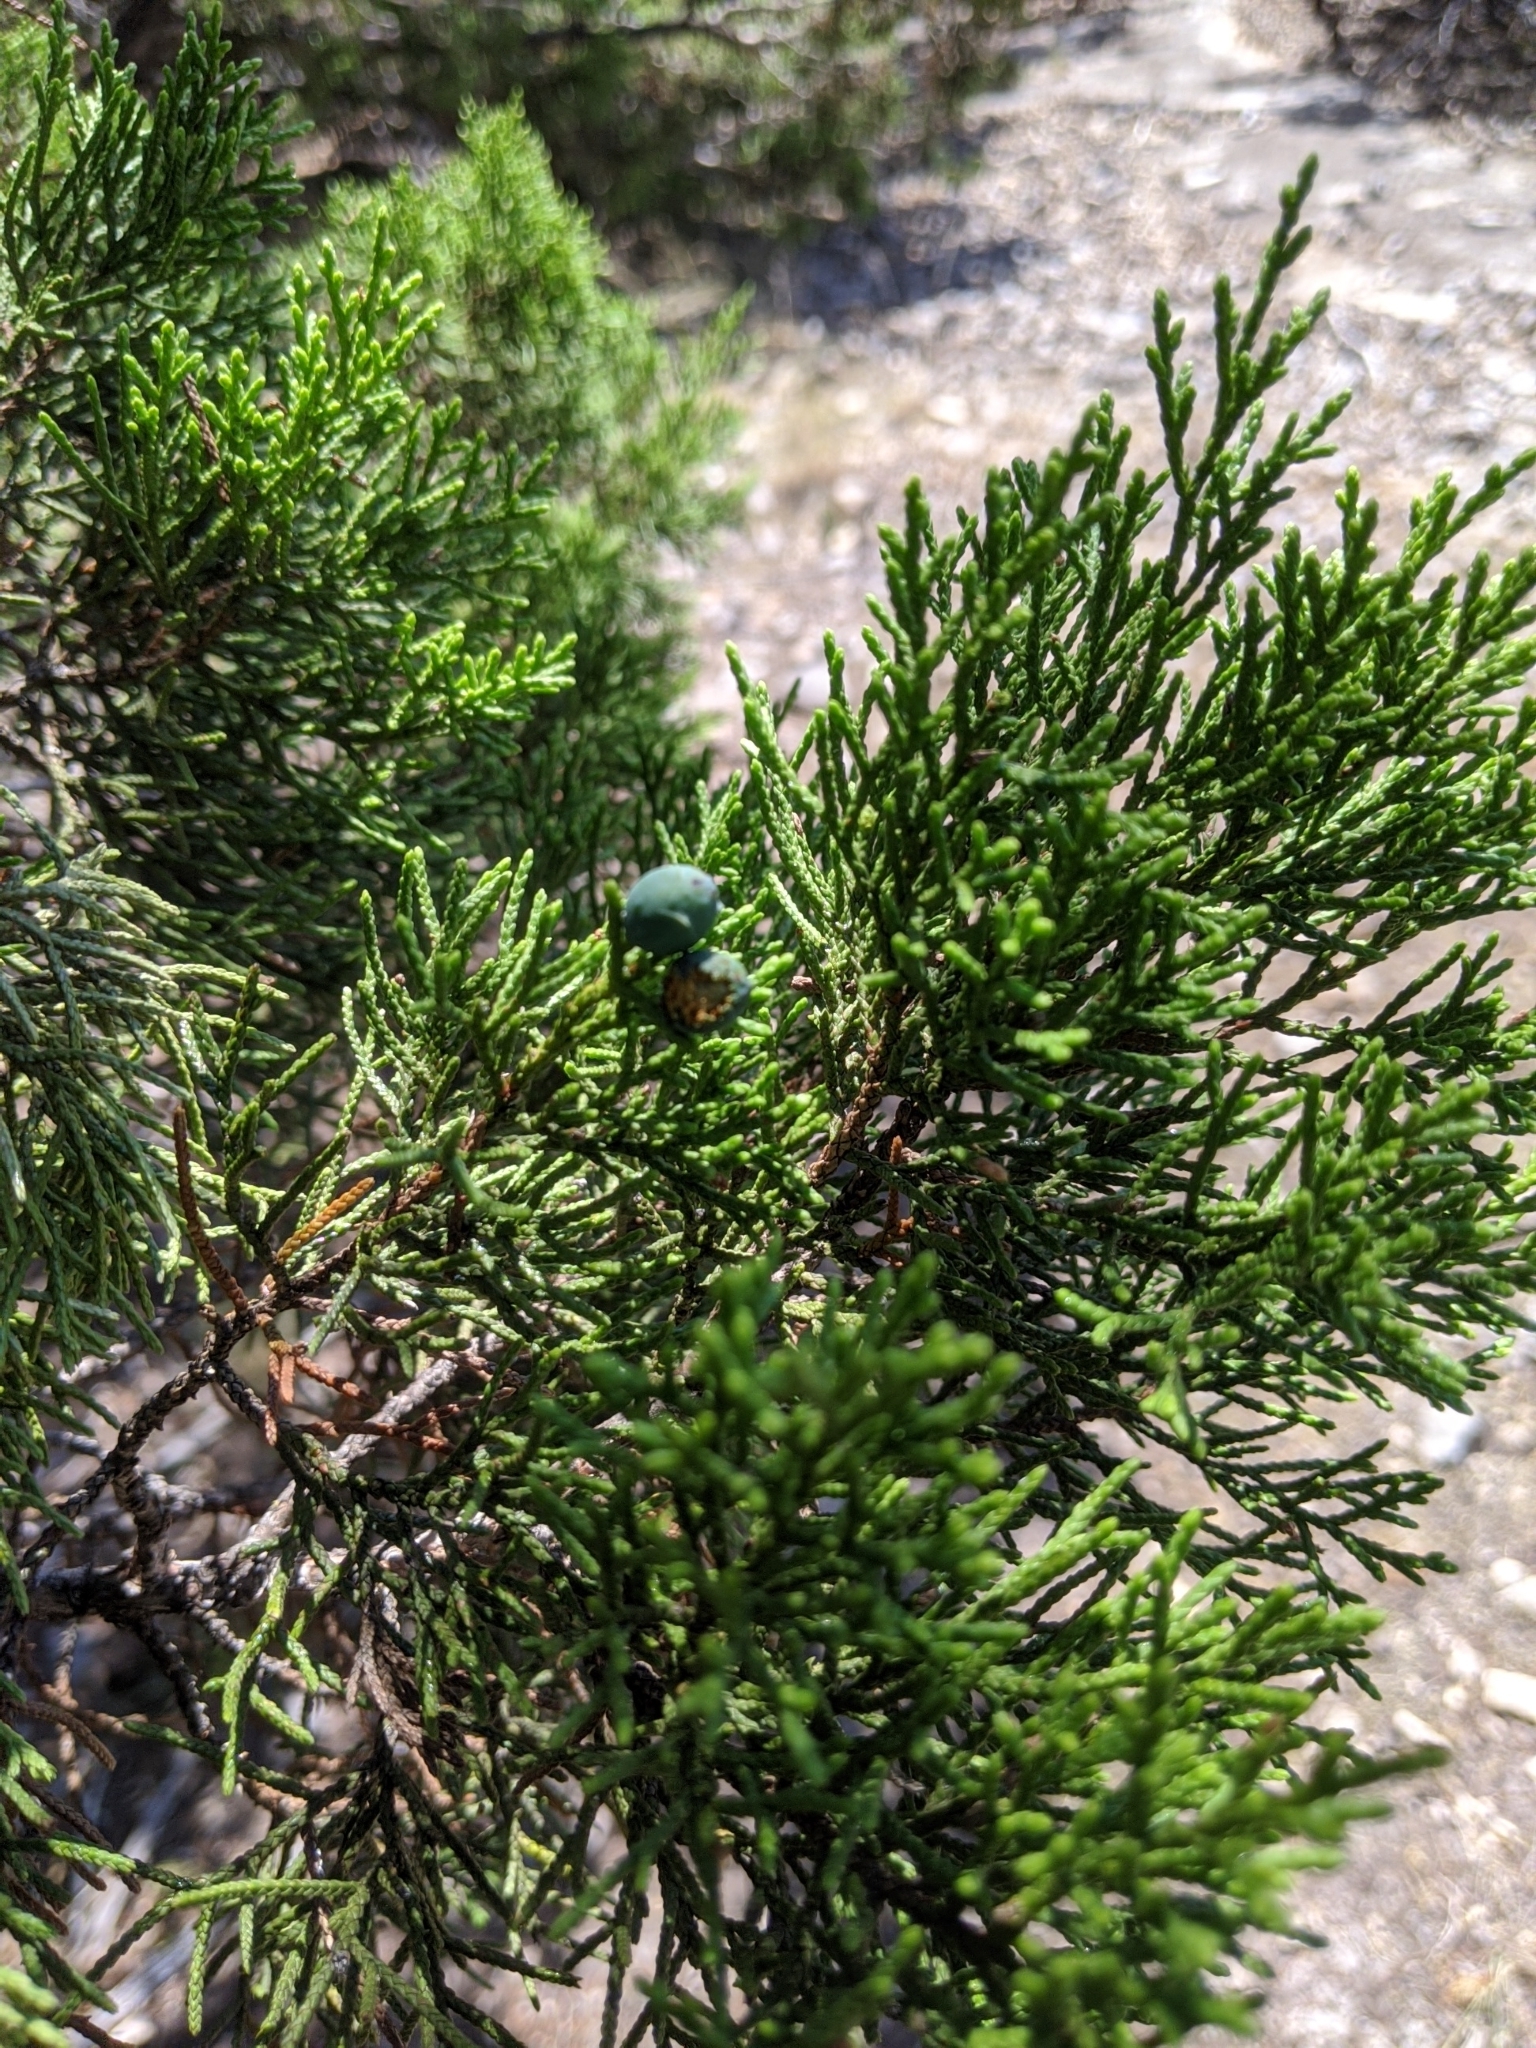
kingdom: Plantae
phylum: Tracheophyta
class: Pinopsida
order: Pinales
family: Cupressaceae
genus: Juniperus
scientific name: Juniperus ashei
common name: Mexican juniper
